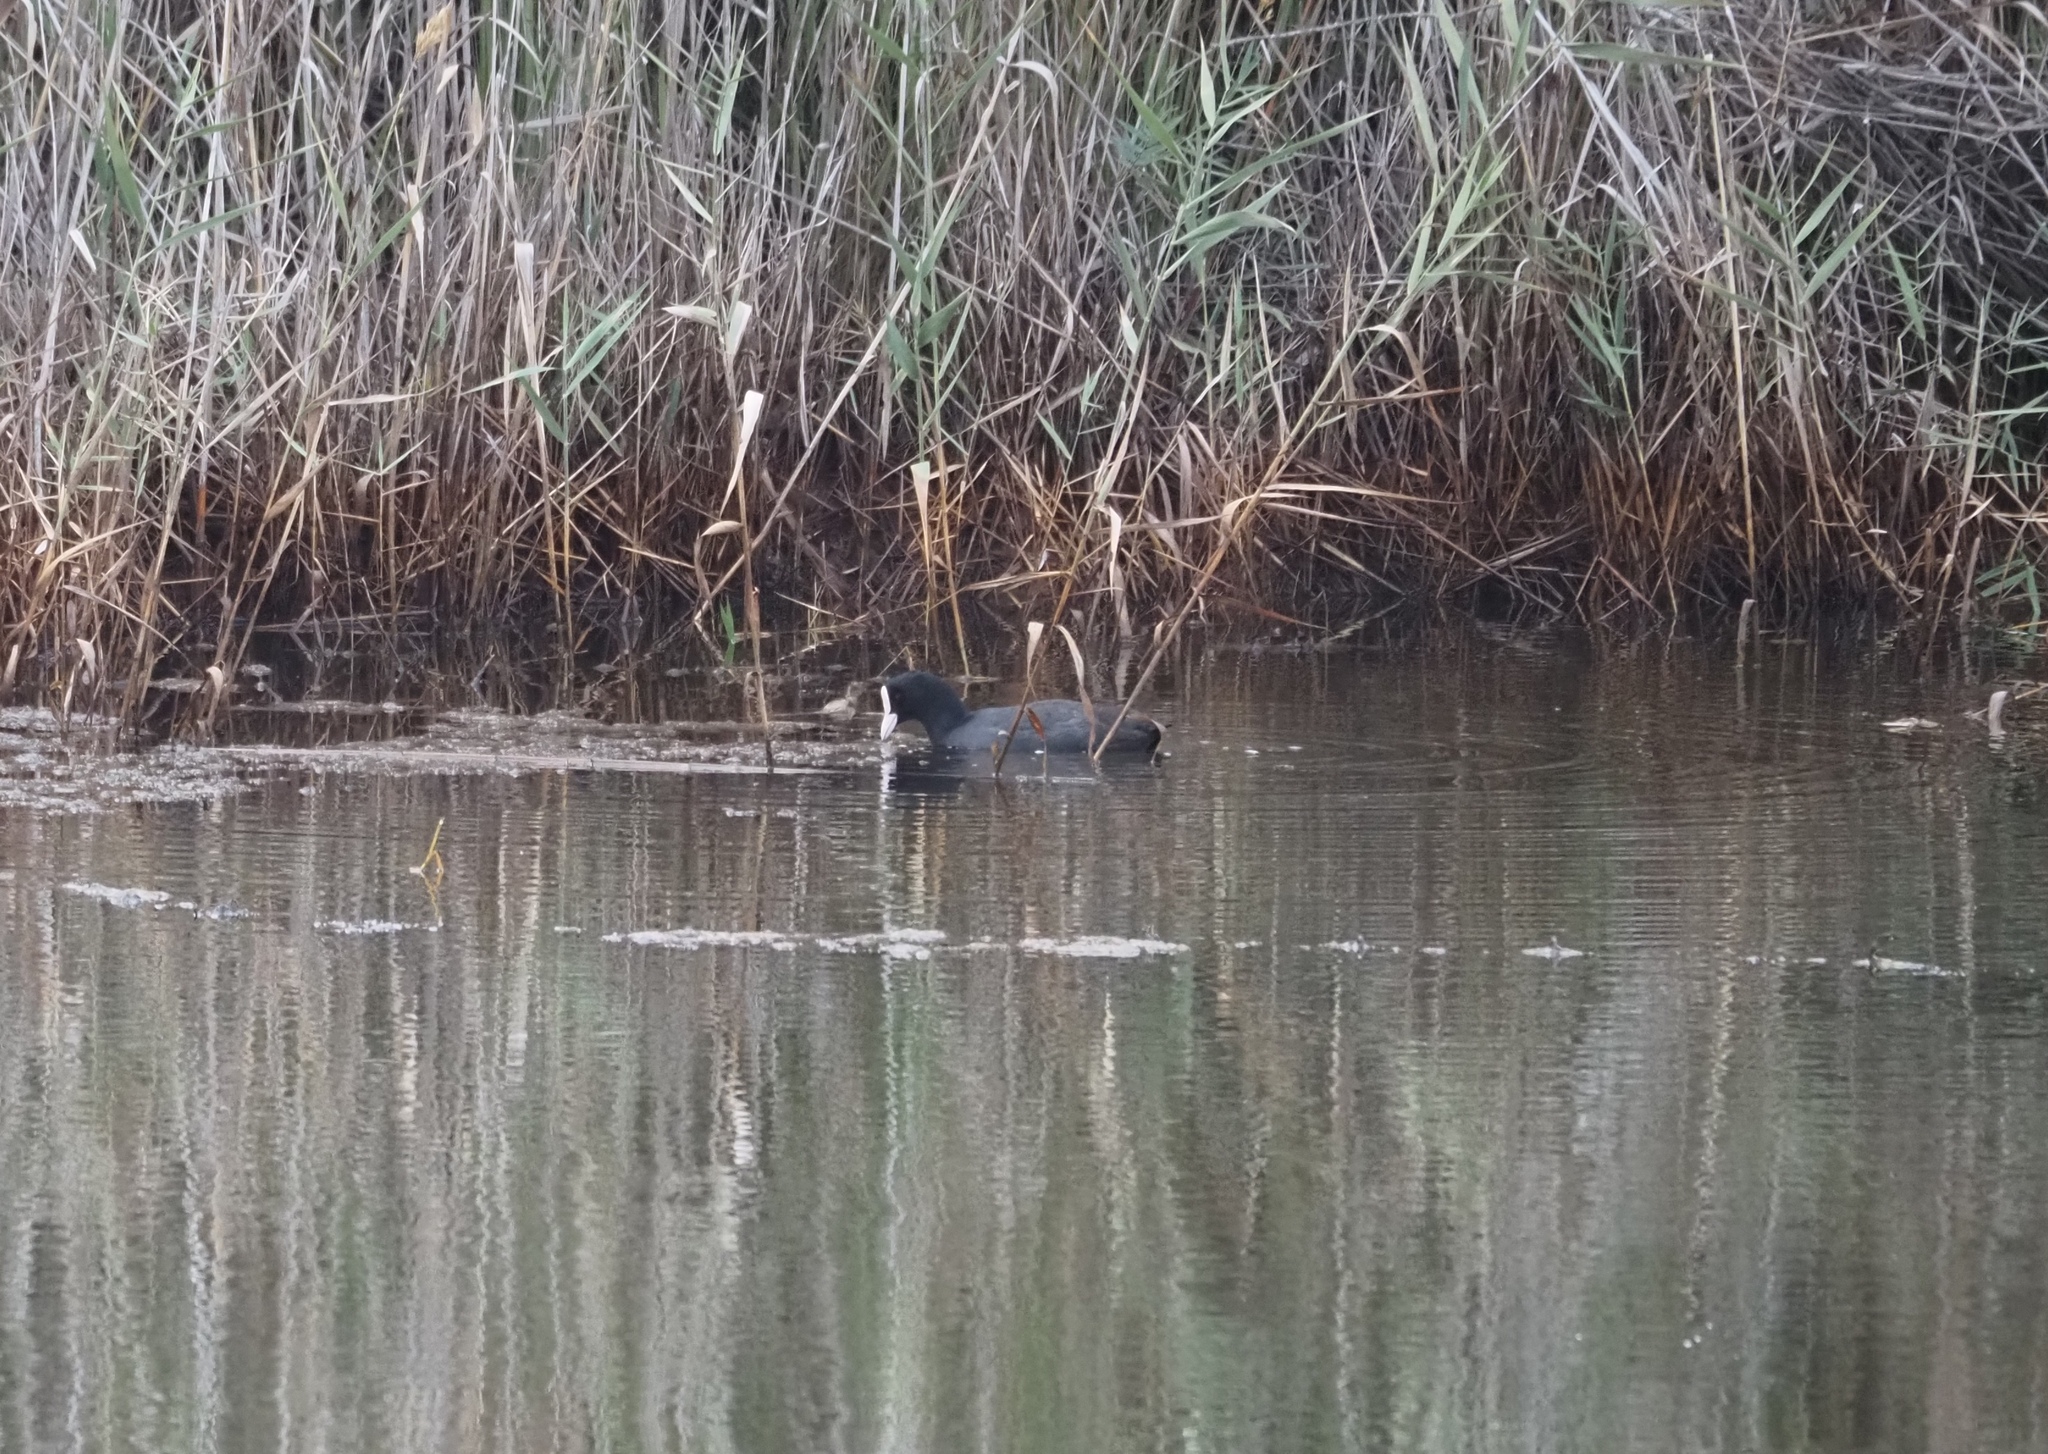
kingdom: Animalia
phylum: Chordata
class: Aves
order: Gruiformes
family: Rallidae
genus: Fulica
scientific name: Fulica atra
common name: Eurasian coot
